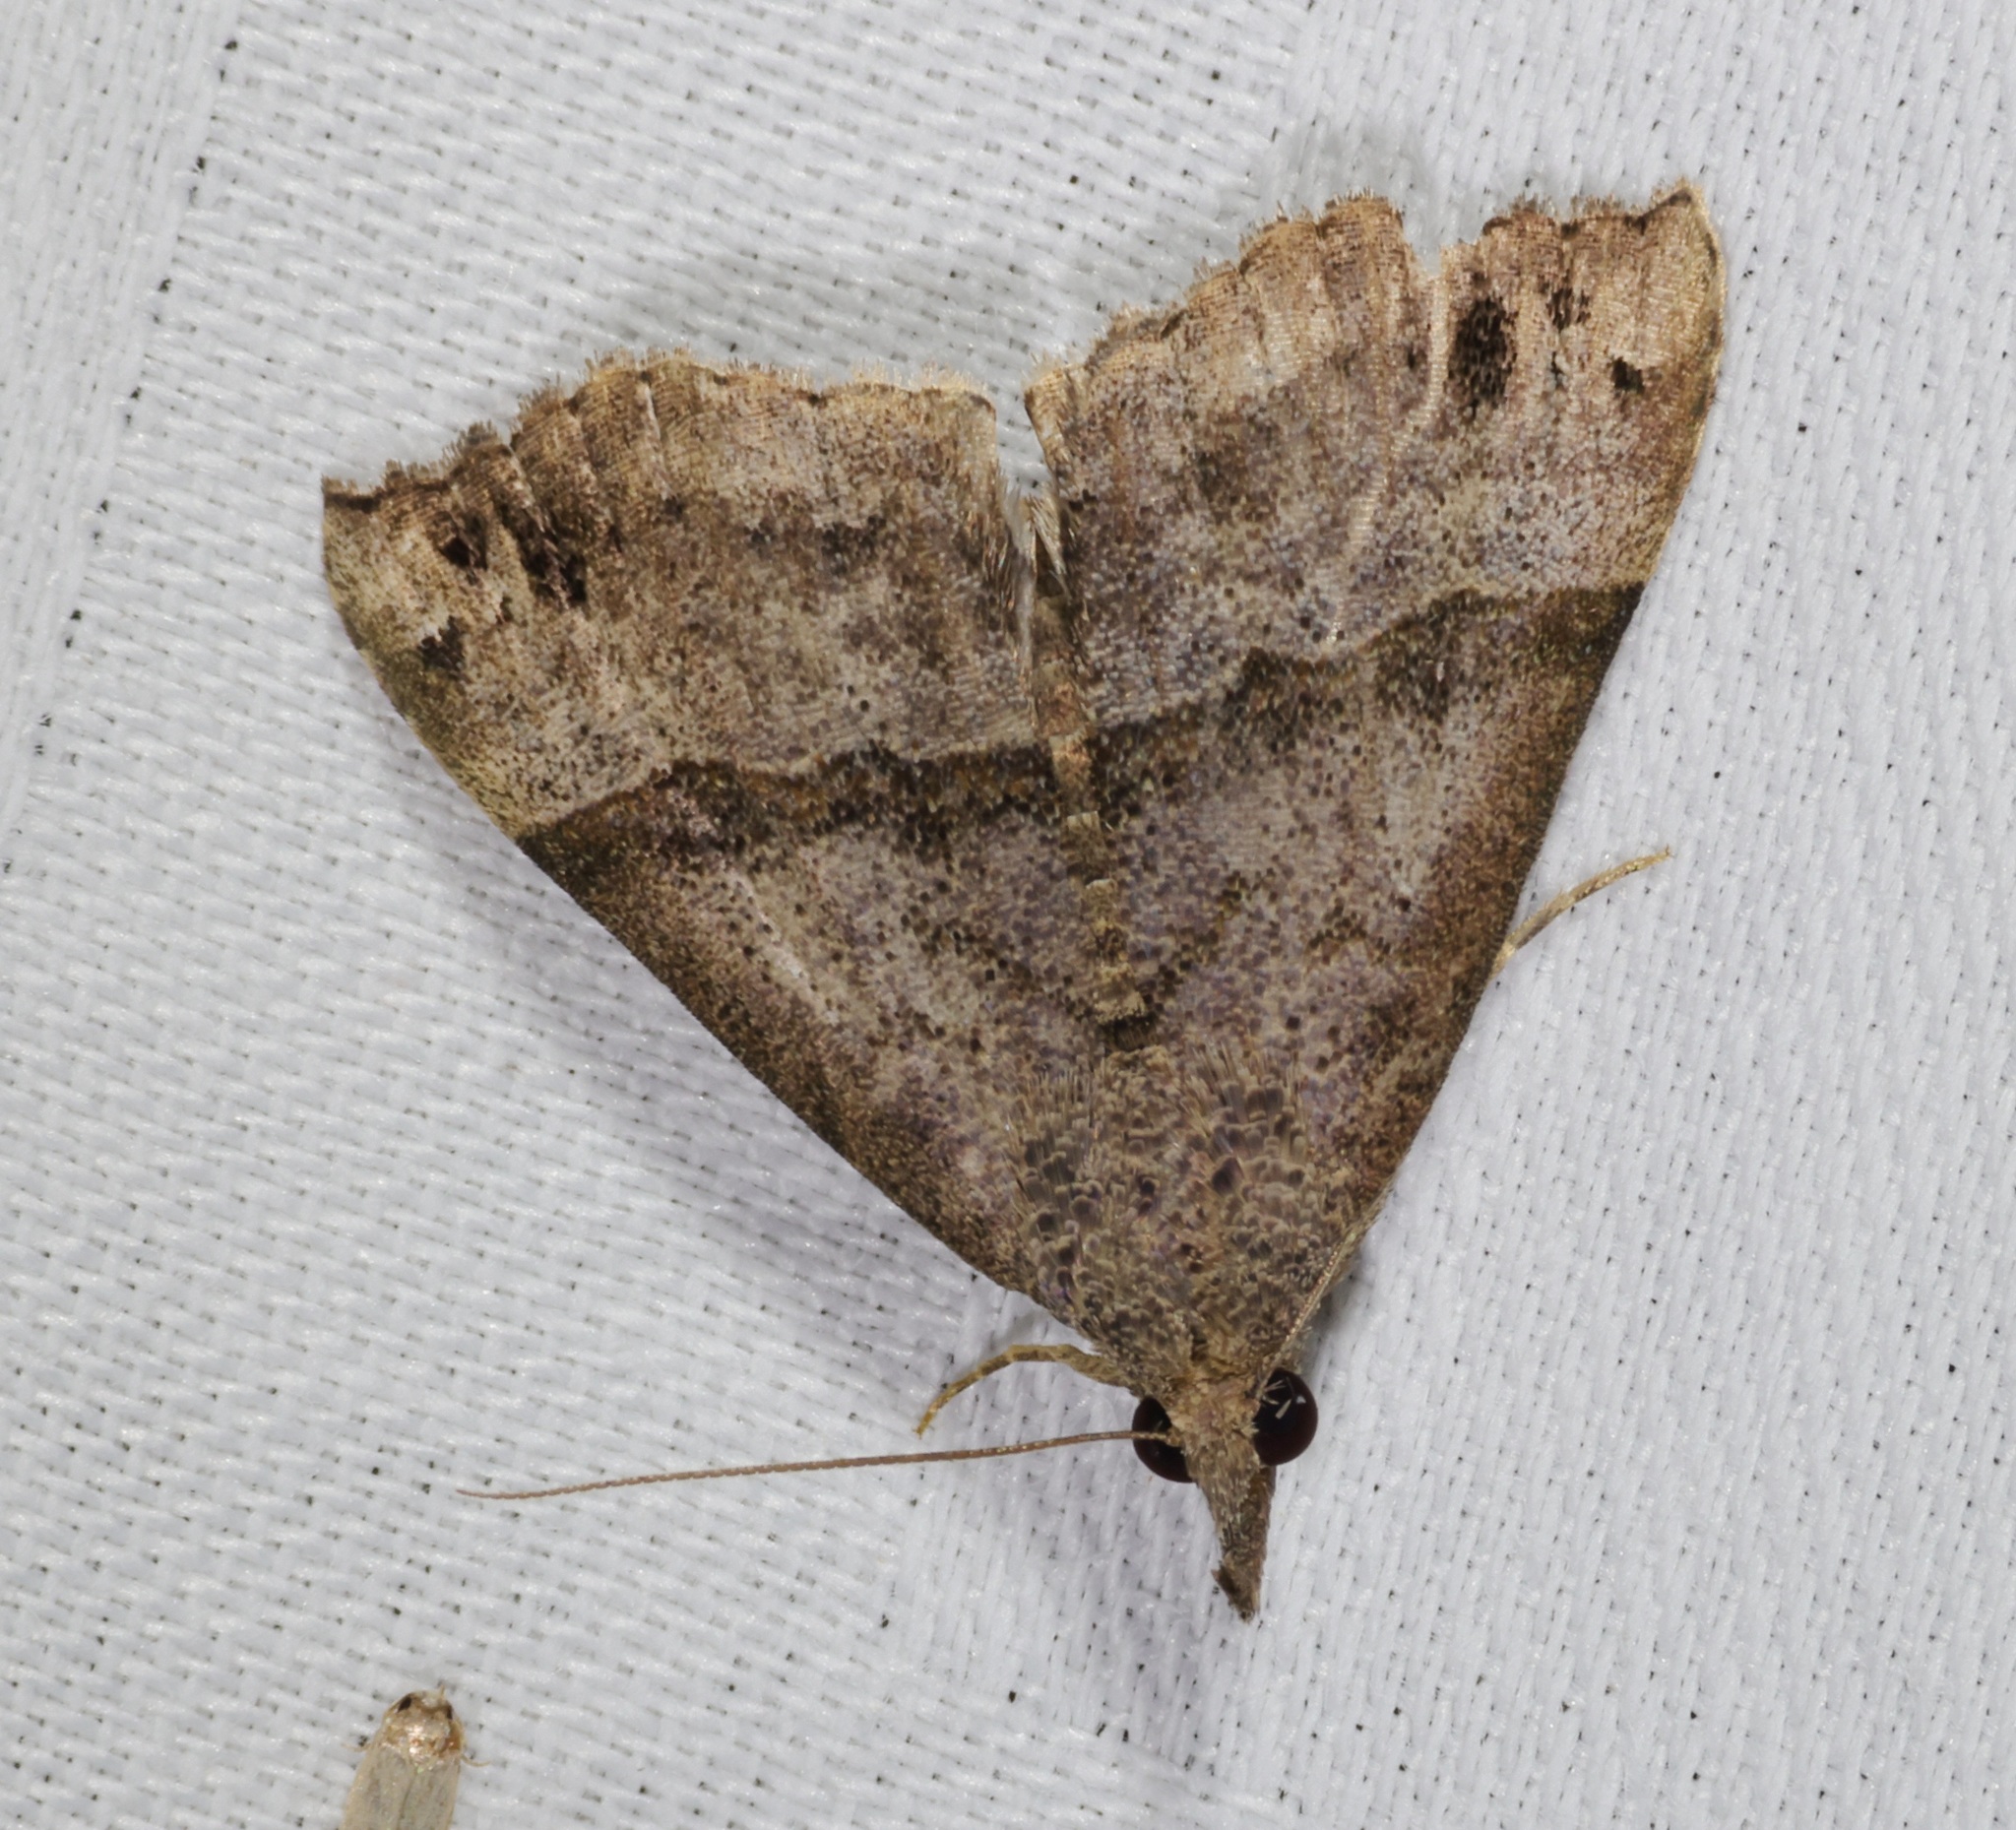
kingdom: Animalia
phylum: Arthropoda
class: Insecta
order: Lepidoptera
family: Erebidae
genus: Hypena
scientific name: Hypena
